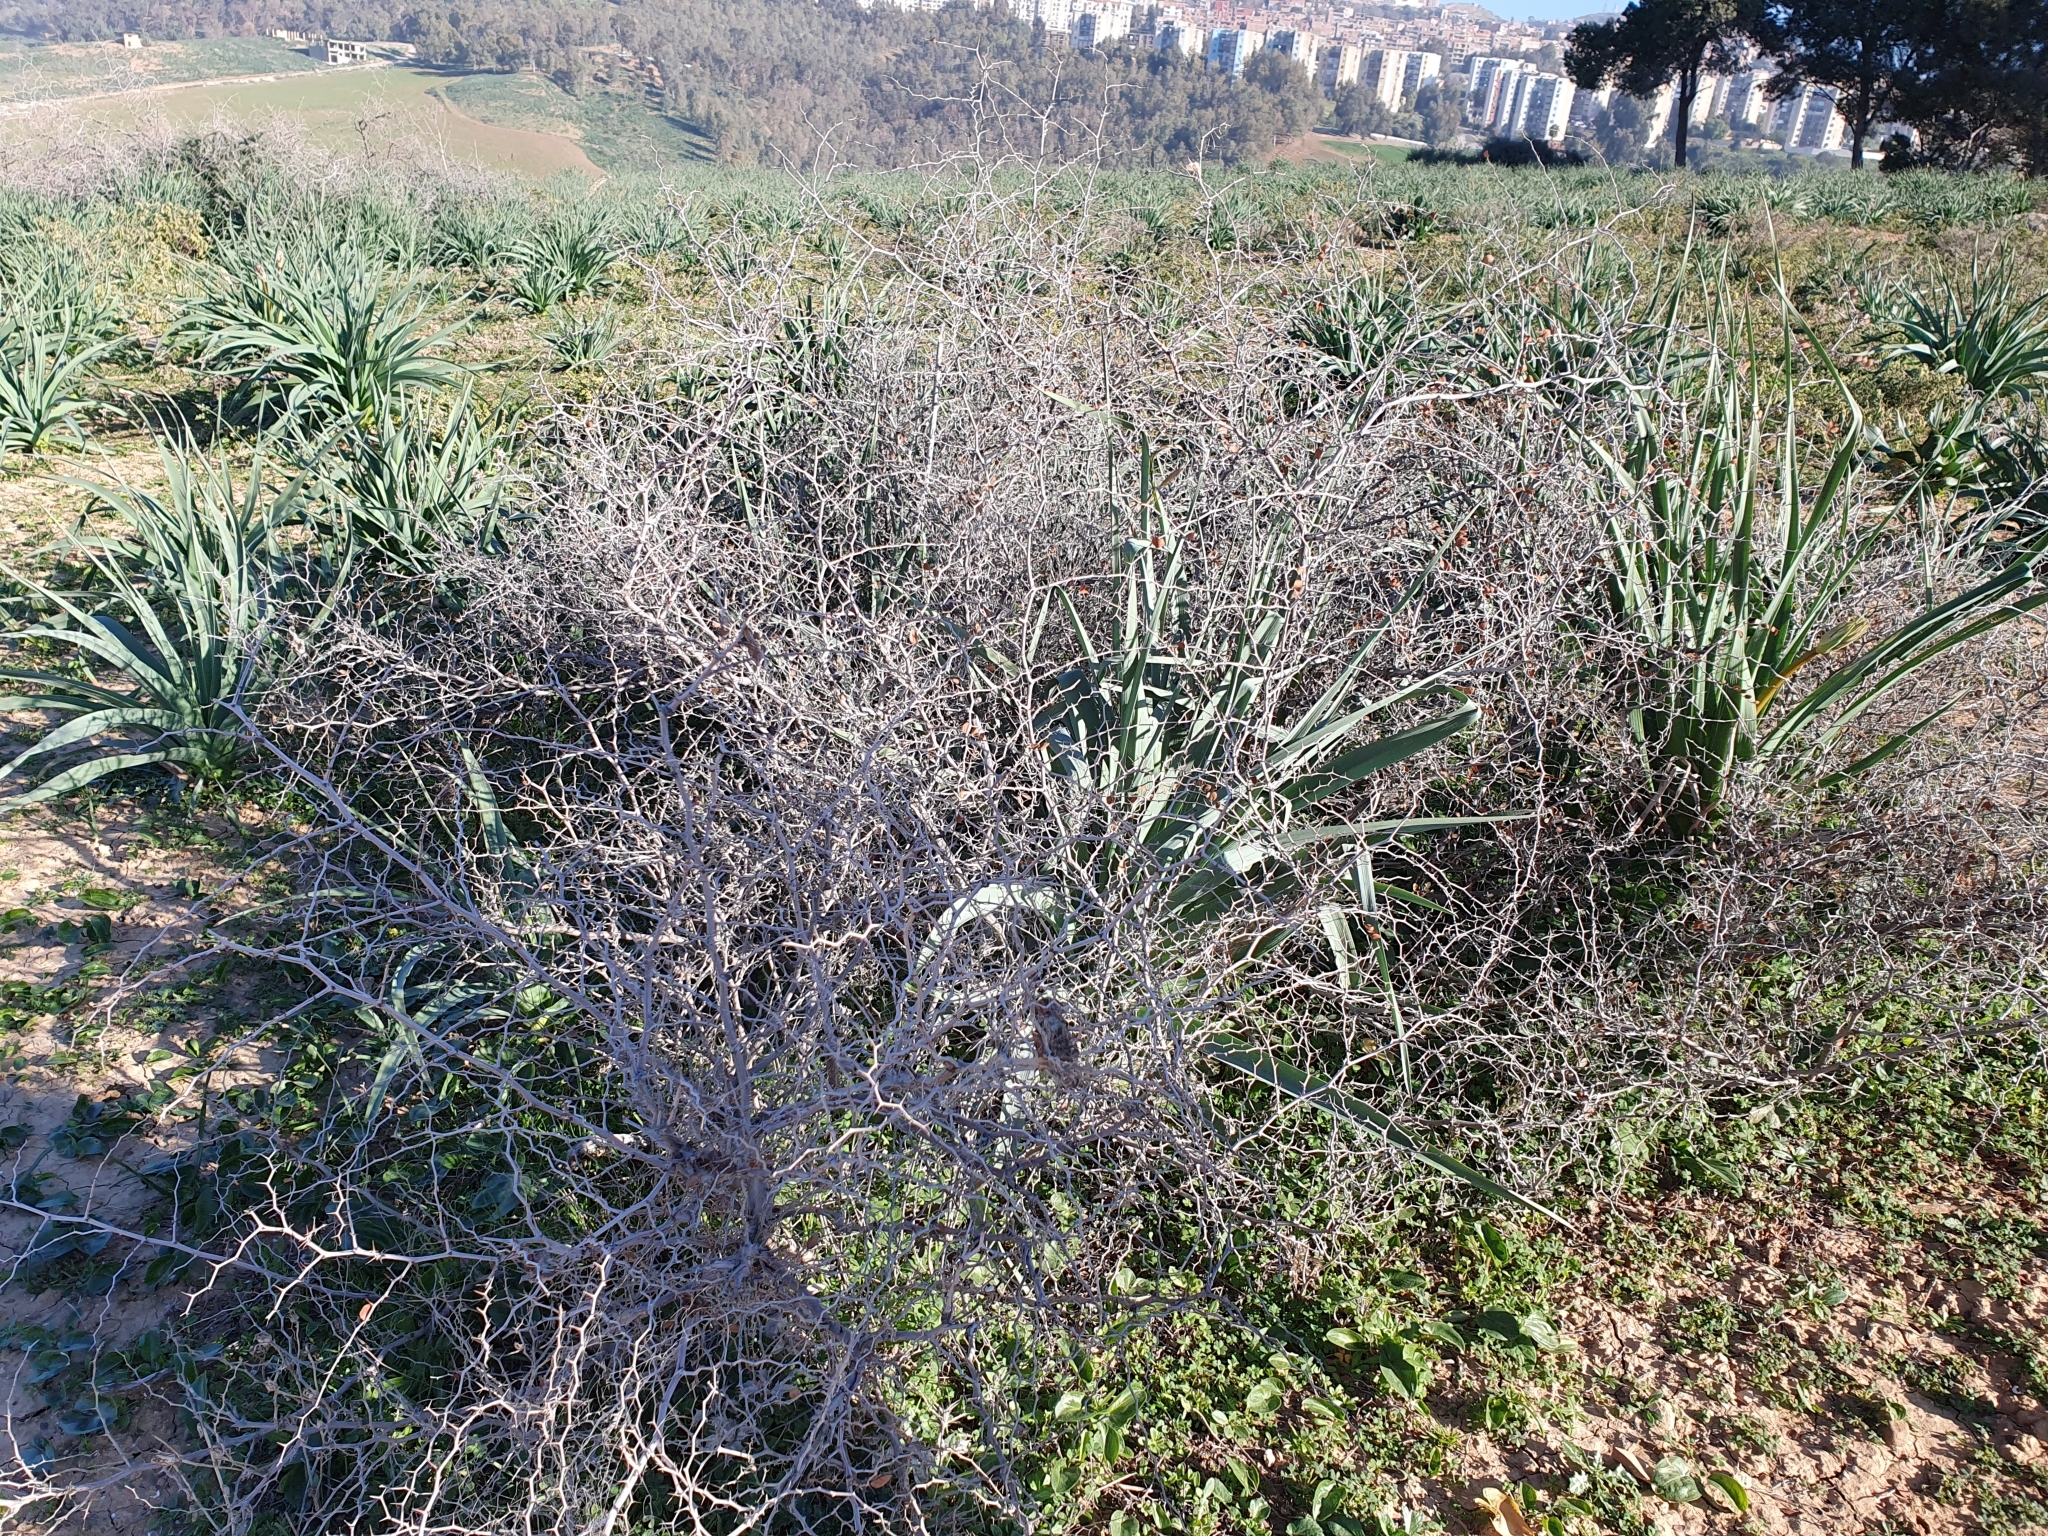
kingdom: Plantae
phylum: Tracheophyta
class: Magnoliopsida
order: Rosales
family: Rhamnaceae
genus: Ziziphus
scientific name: Ziziphus lotus
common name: Lotus
